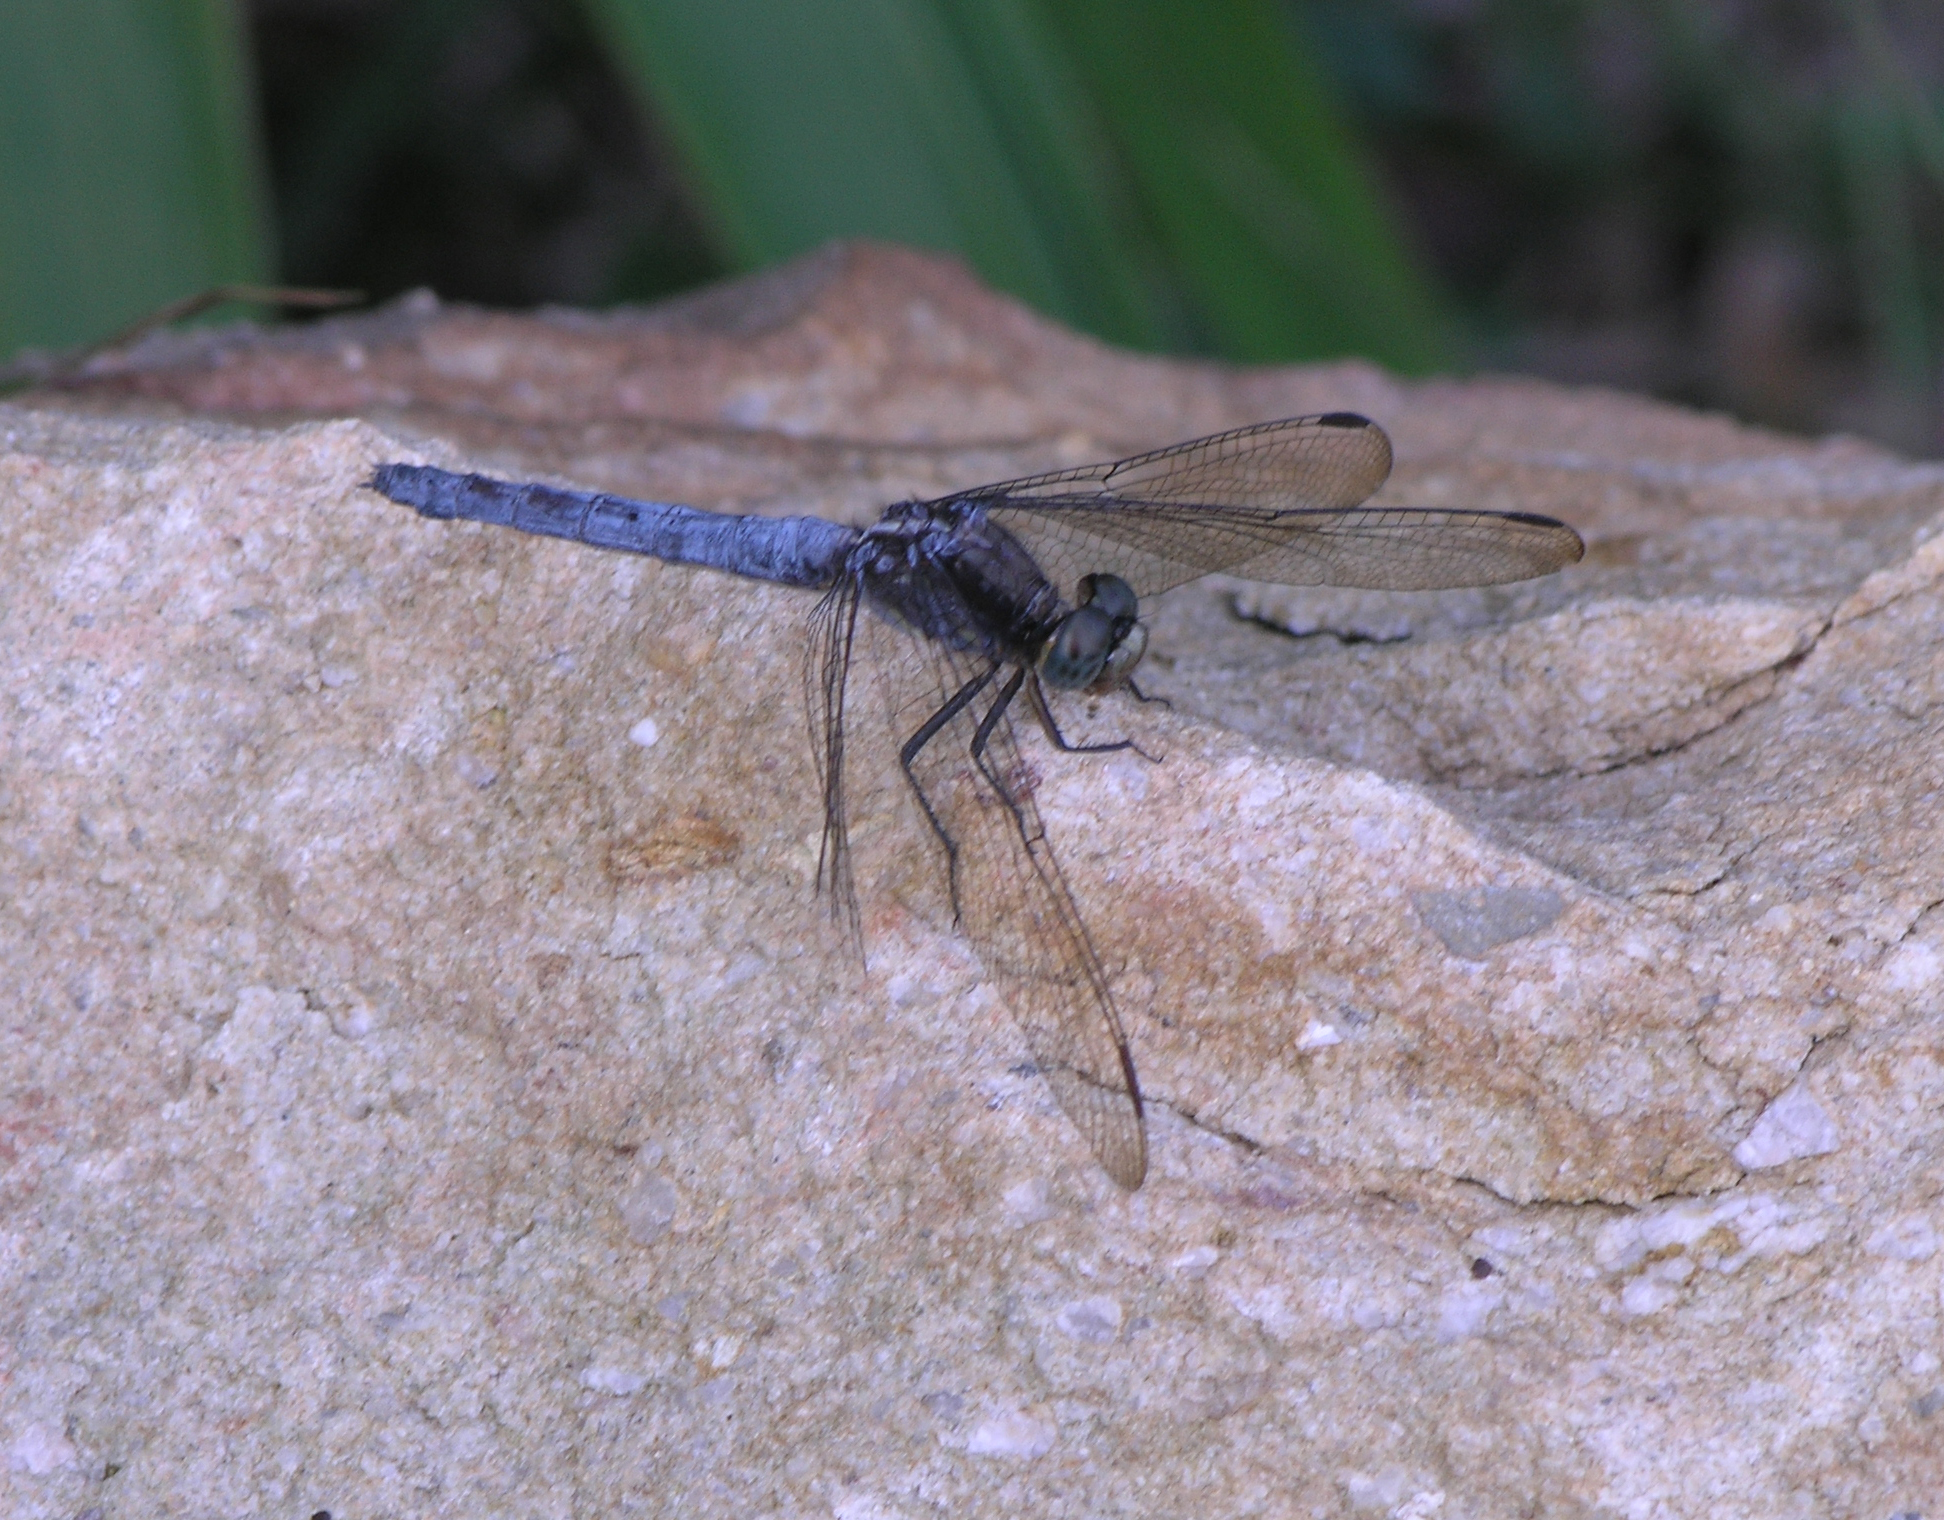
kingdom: Animalia
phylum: Arthropoda
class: Insecta
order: Odonata
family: Libellulidae
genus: Orthetrum
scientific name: Orthetrum glaucum
